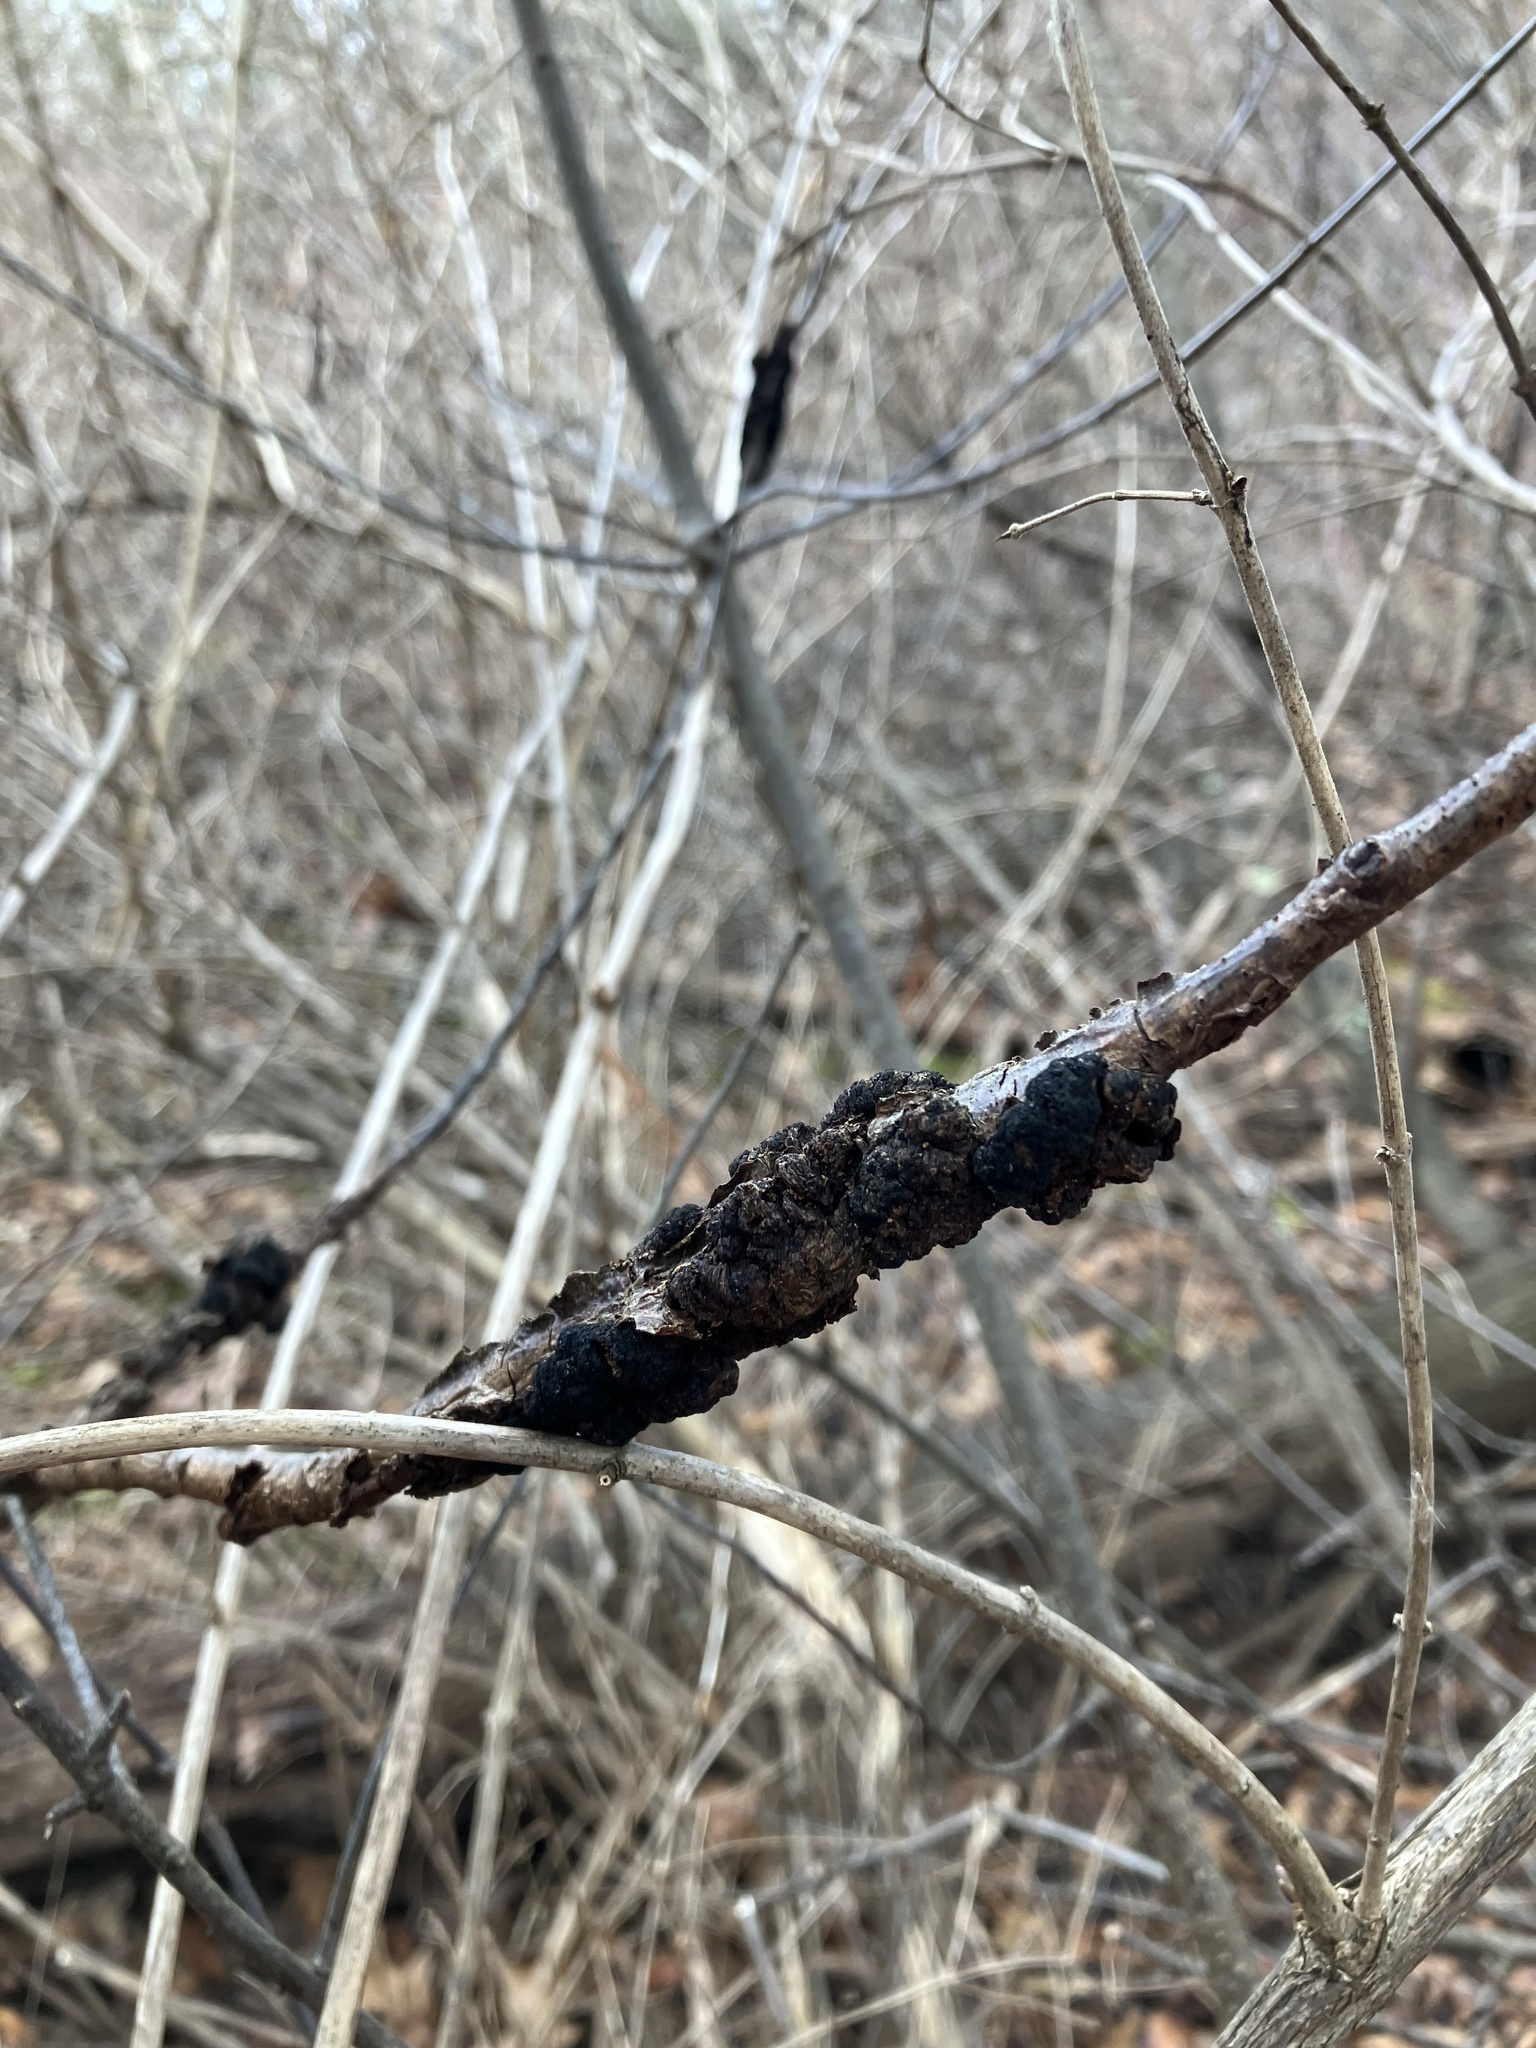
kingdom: Fungi
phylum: Ascomycota
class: Dothideomycetes
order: Venturiales
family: Venturiaceae
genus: Apiosporina
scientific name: Apiosporina morbosa
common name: Black knot
